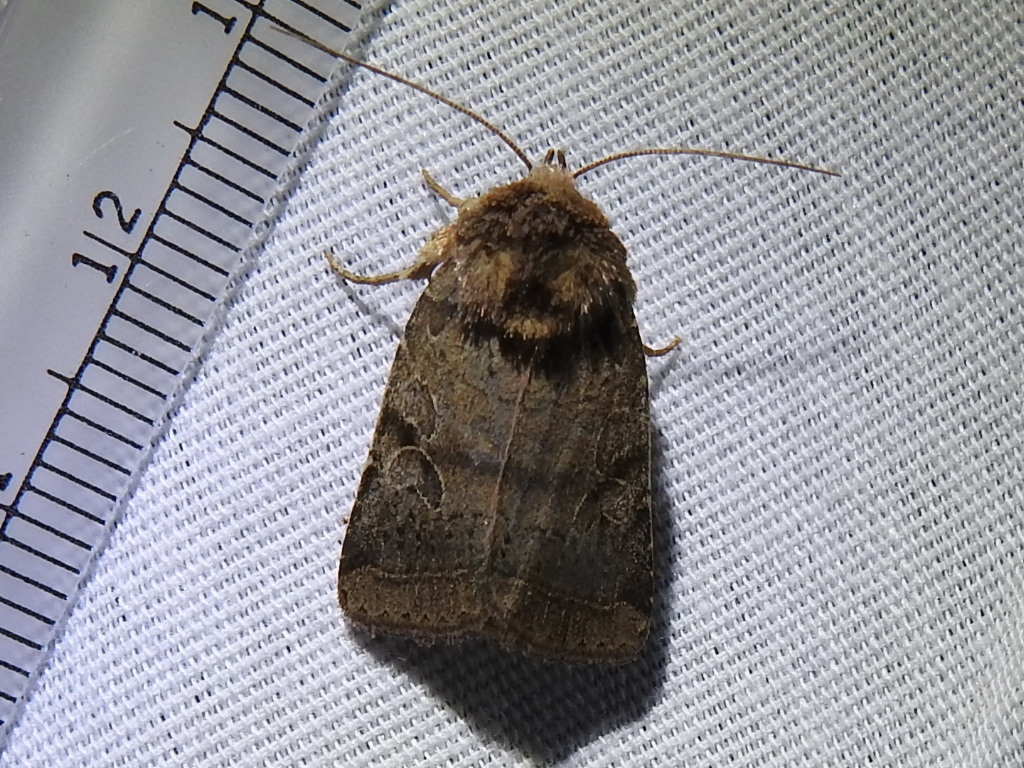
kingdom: Animalia
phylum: Arthropoda
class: Insecta
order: Lepidoptera
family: Noctuidae
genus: Orthodes
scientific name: Orthodes furtiva
